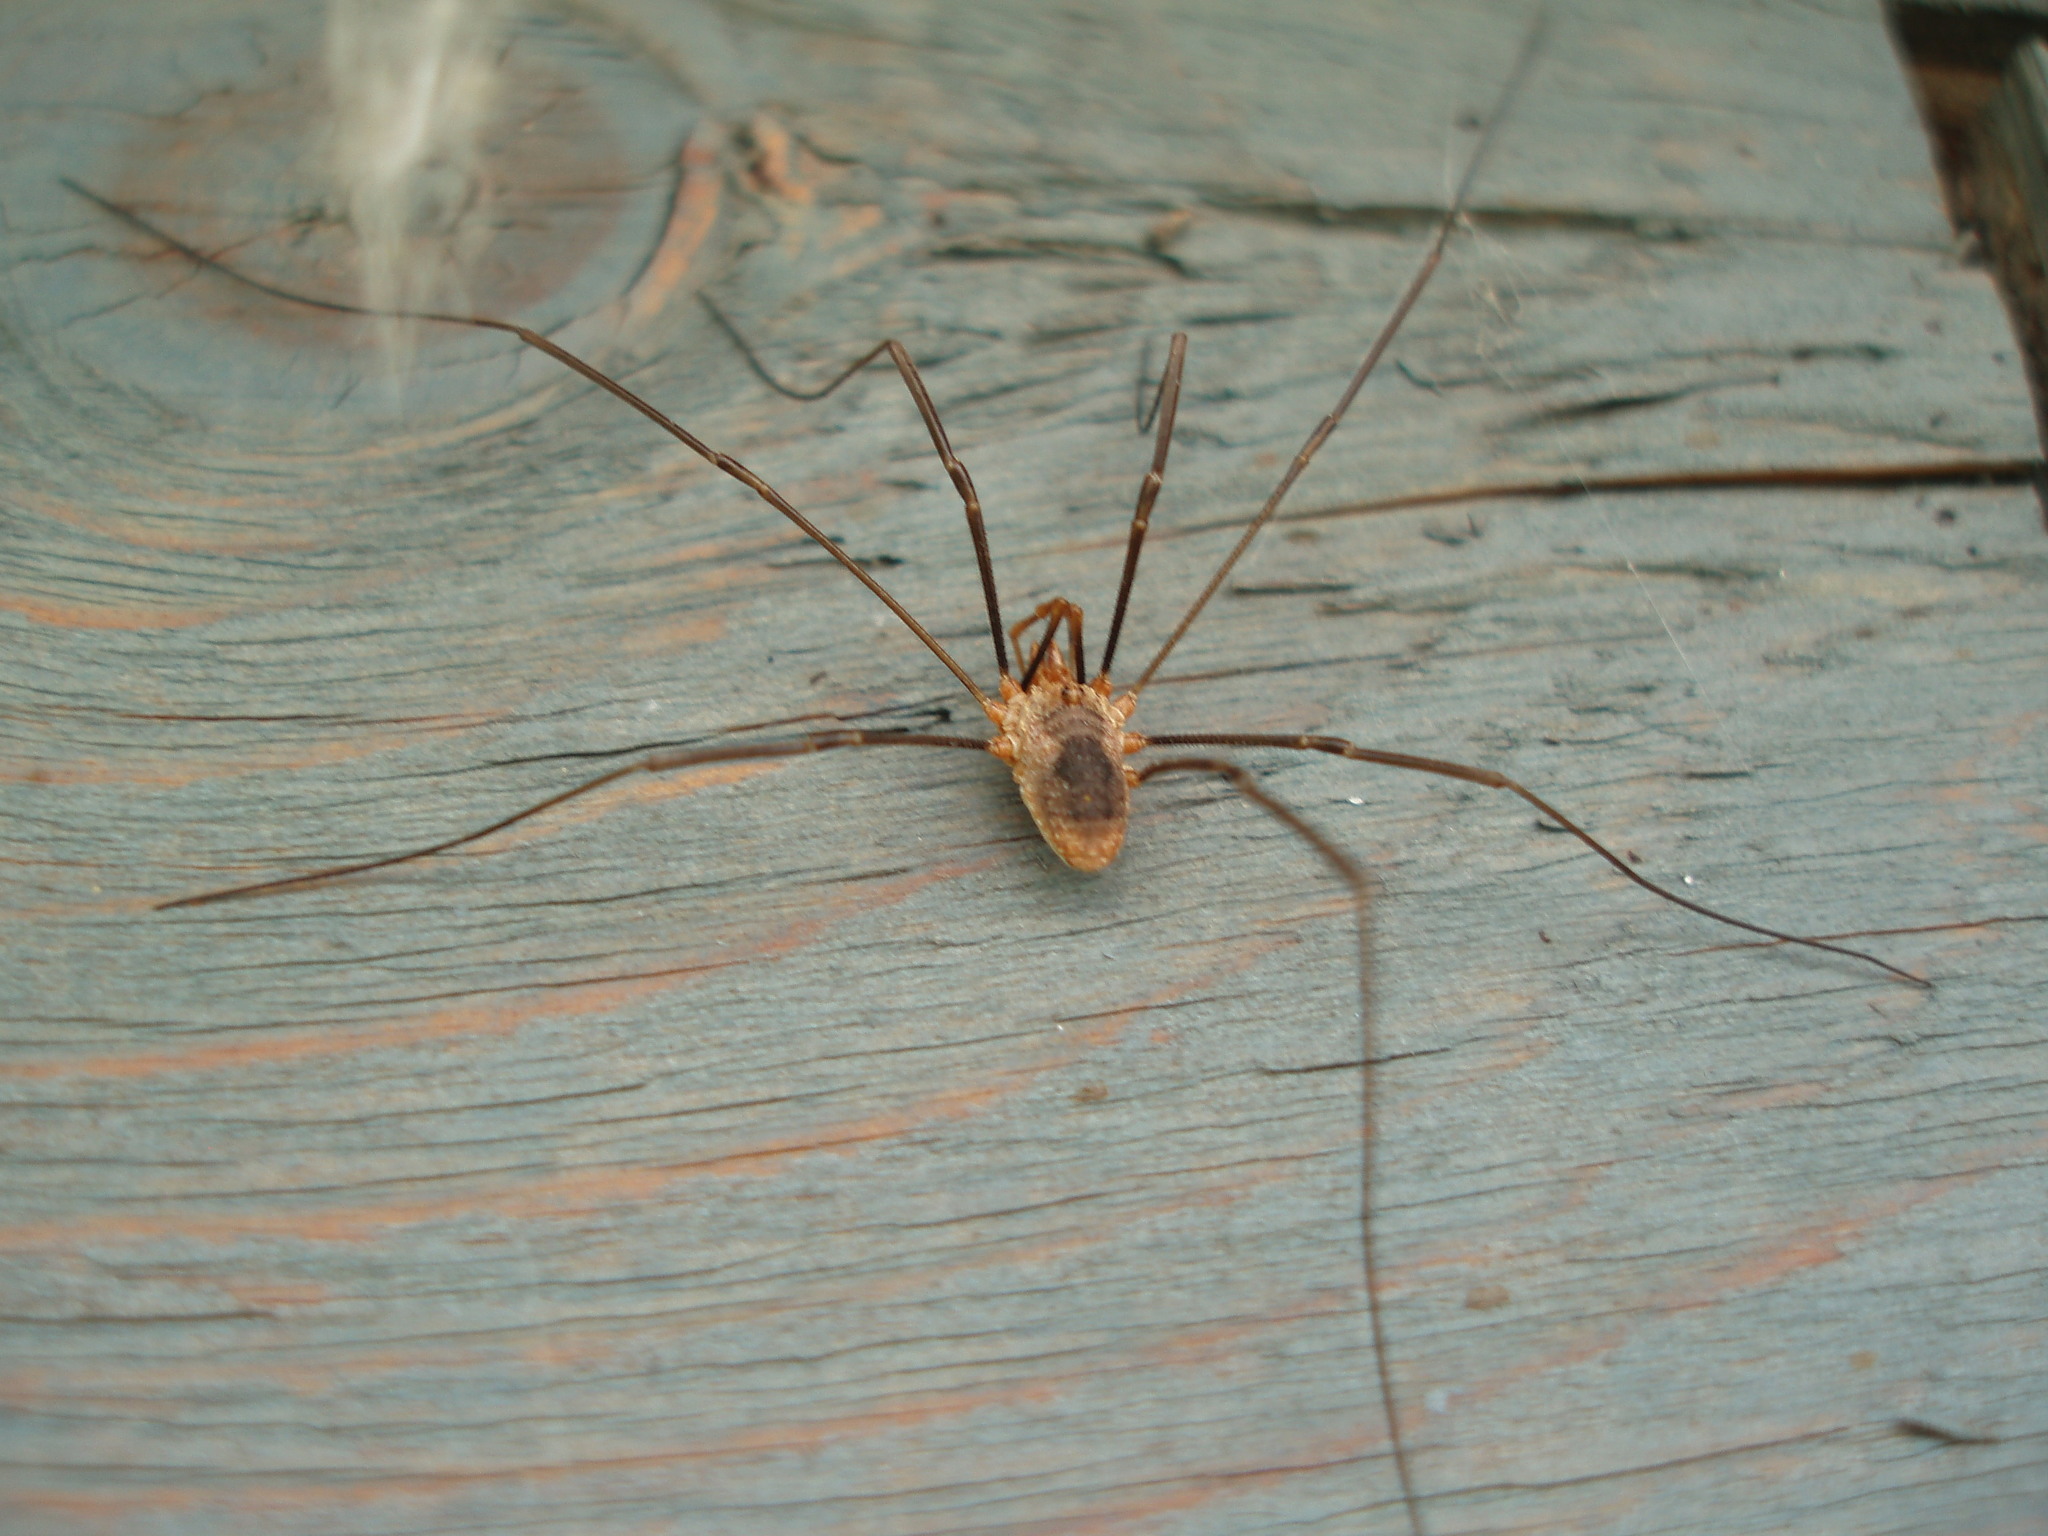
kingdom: Animalia
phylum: Arthropoda
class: Arachnida
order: Opiliones
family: Phalangiidae
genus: Phalangium
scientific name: Phalangium opilio
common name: Daddy longleg
